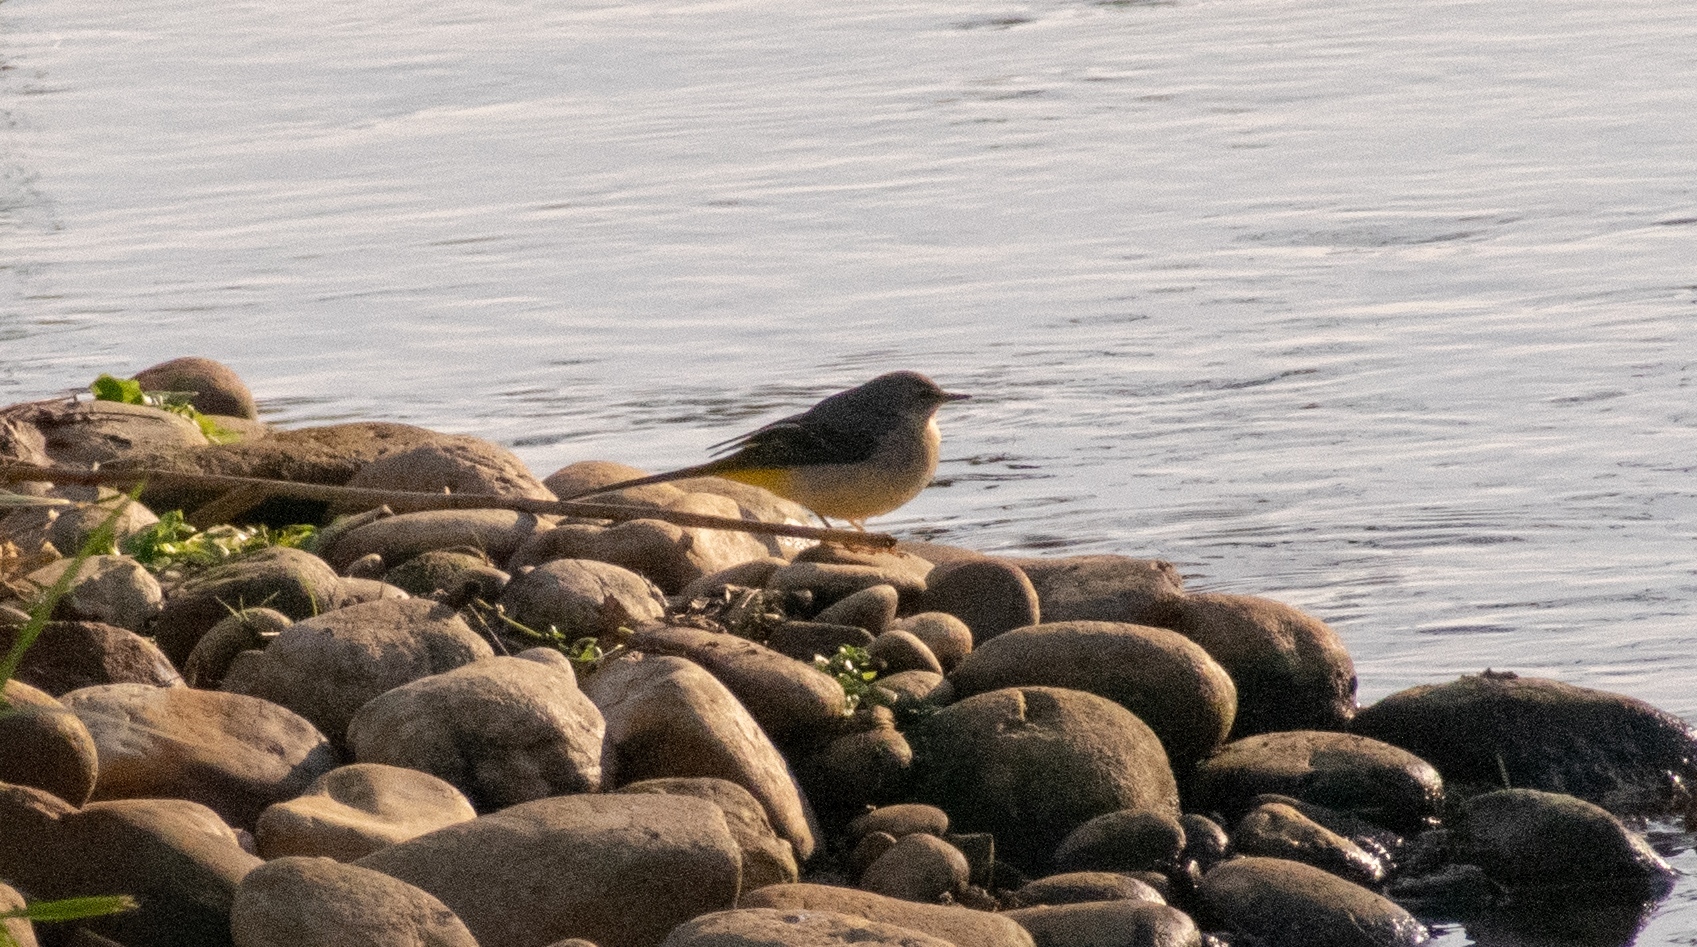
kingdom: Animalia
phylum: Chordata
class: Aves
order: Passeriformes
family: Motacillidae
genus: Motacilla
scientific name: Motacilla cinerea
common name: Grey wagtail
